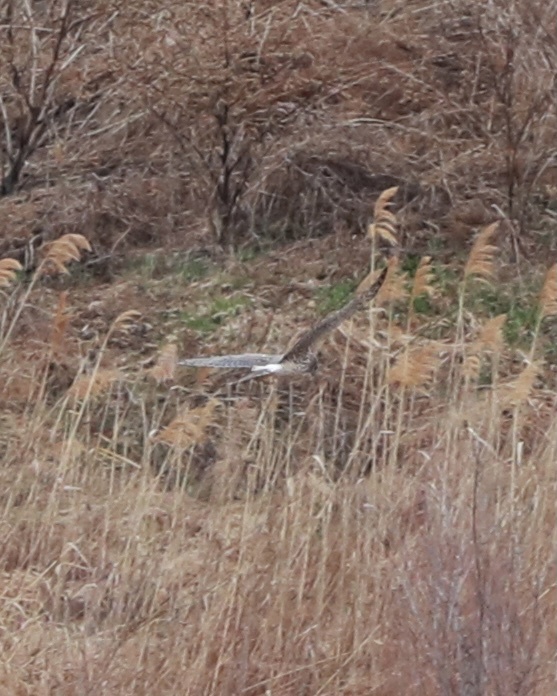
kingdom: Animalia
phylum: Chordata
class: Aves
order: Accipitriformes
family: Accipitridae
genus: Circus
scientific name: Circus cyaneus
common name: Hen harrier
